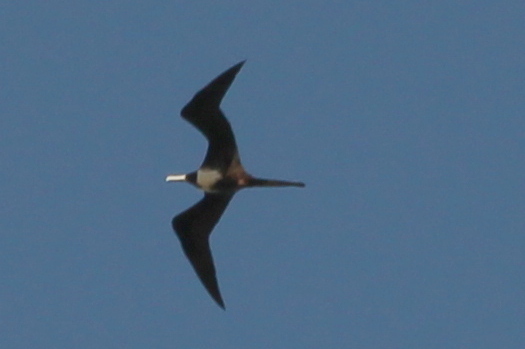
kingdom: Animalia
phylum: Chordata
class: Aves
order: Suliformes
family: Fregatidae
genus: Fregata
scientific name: Fregata magnificens
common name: Magnificent frigatebird
